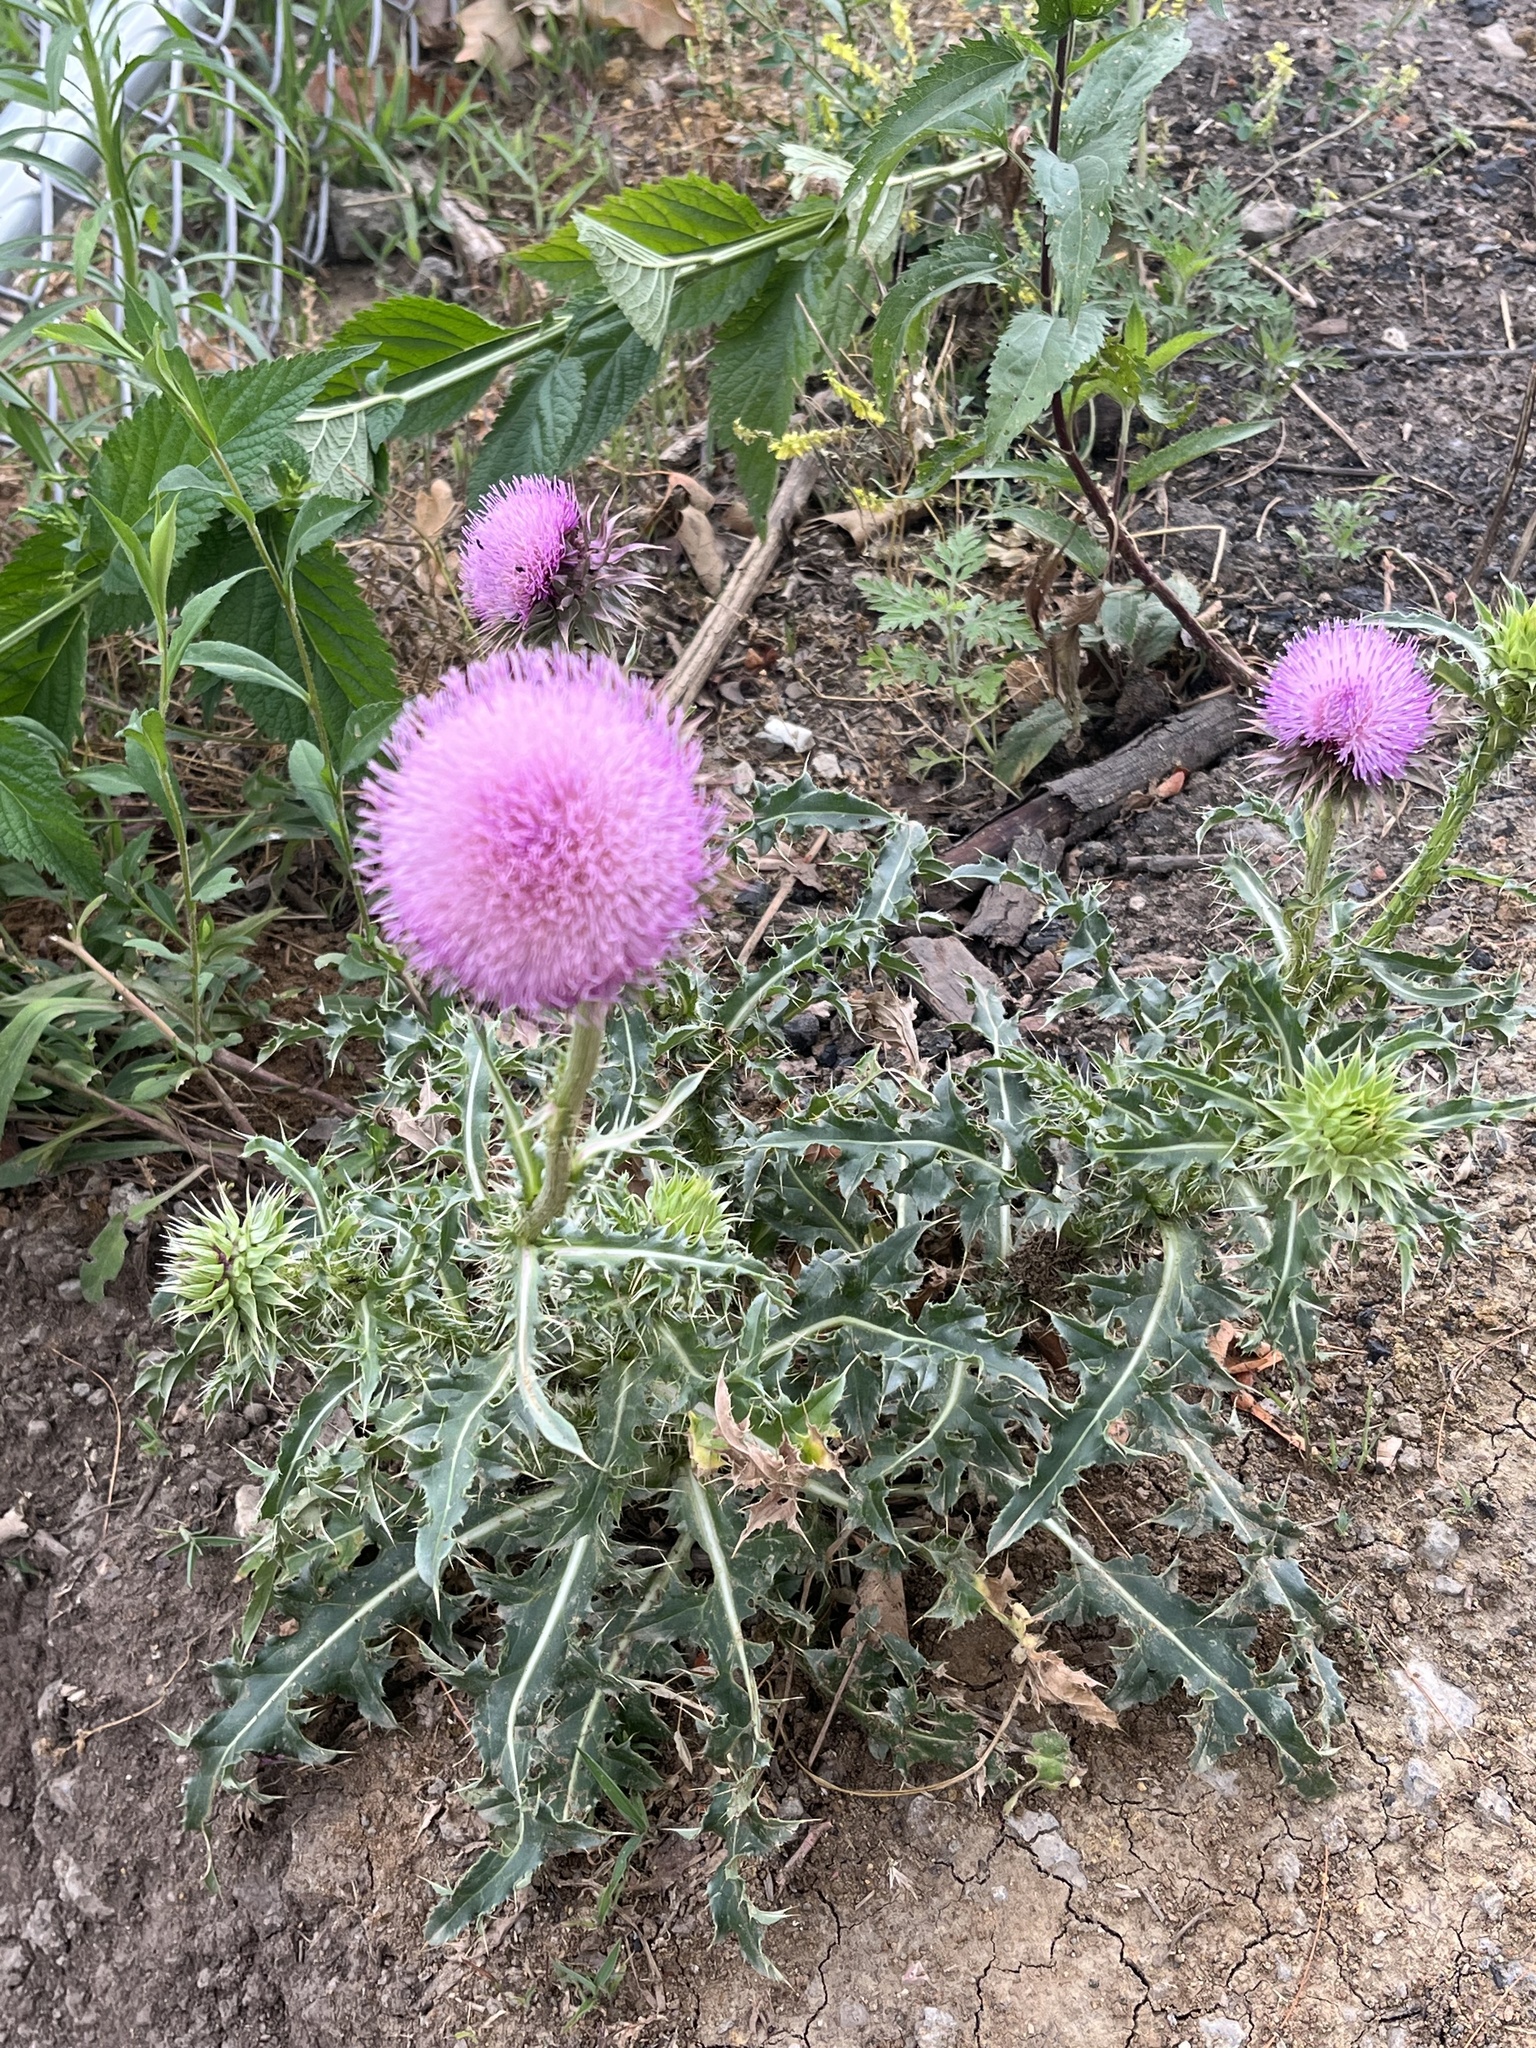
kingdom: Plantae
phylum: Tracheophyta
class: Magnoliopsida
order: Asterales
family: Asteraceae
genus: Carduus
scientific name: Carduus nutans
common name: Musk thistle
